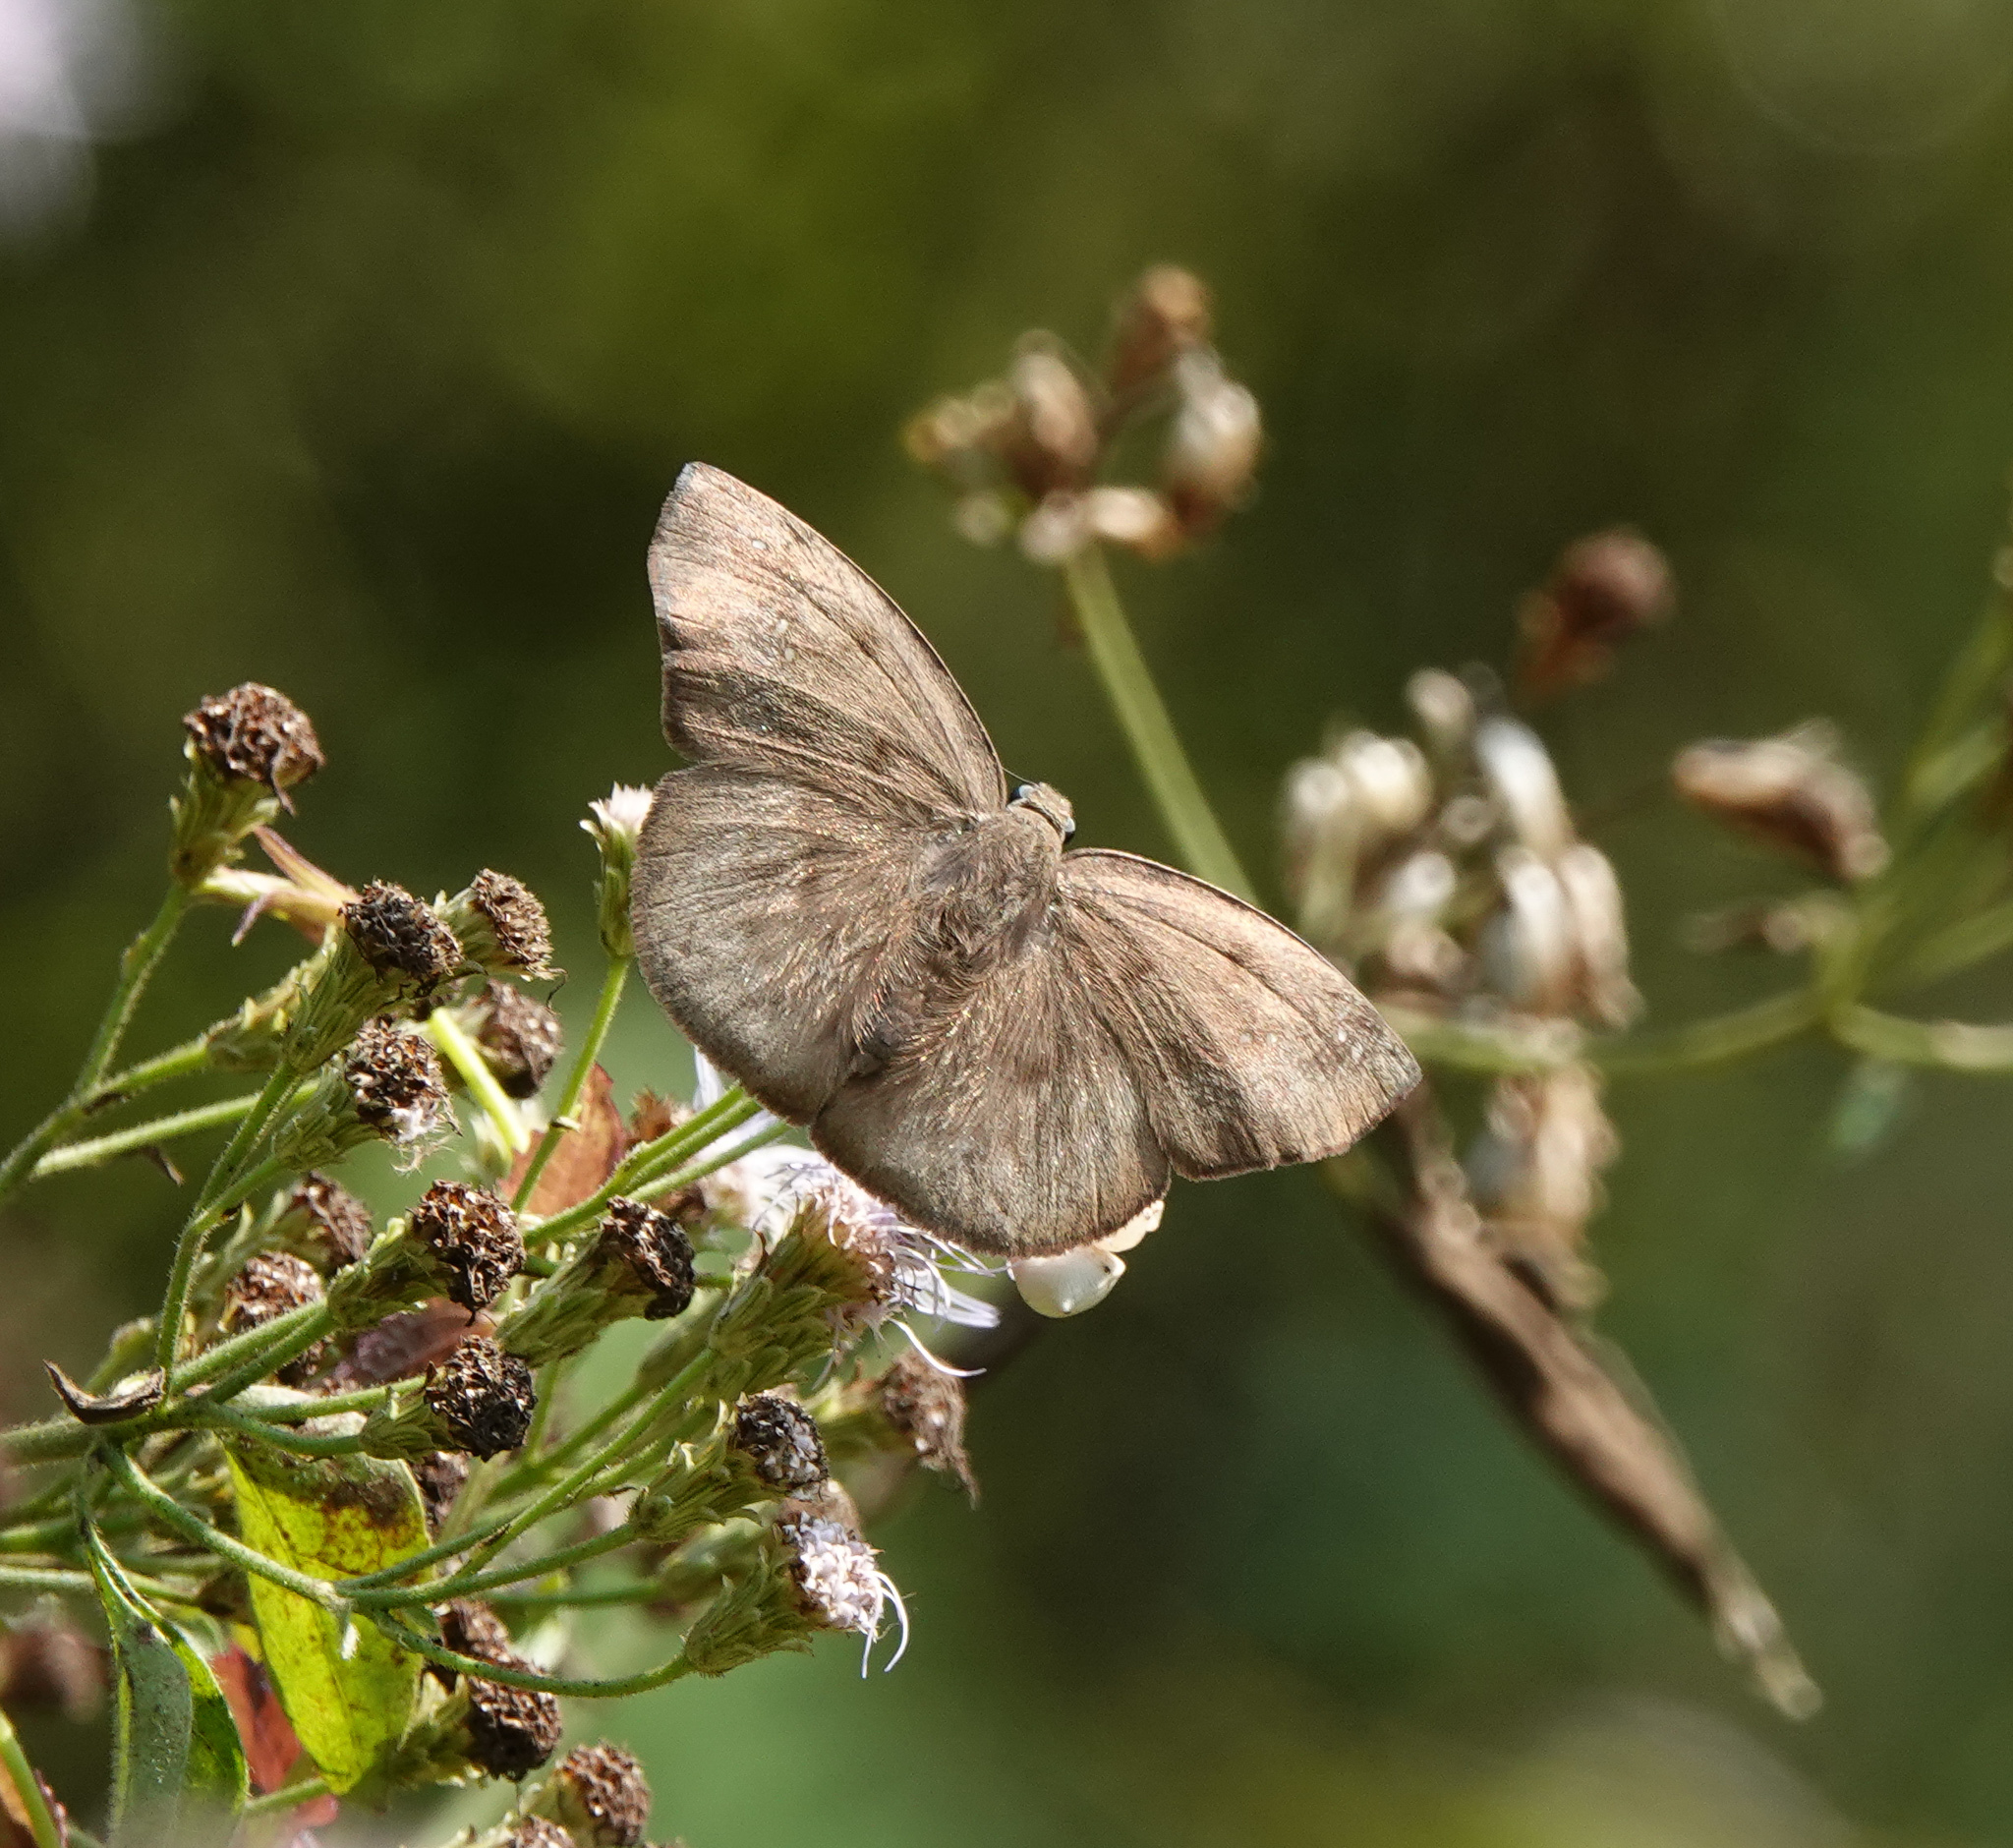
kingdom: Animalia
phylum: Arthropoda
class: Insecta
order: Lepidoptera
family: Hesperiidae
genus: Tagiades
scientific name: Tagiades japetus
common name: Pied flat
